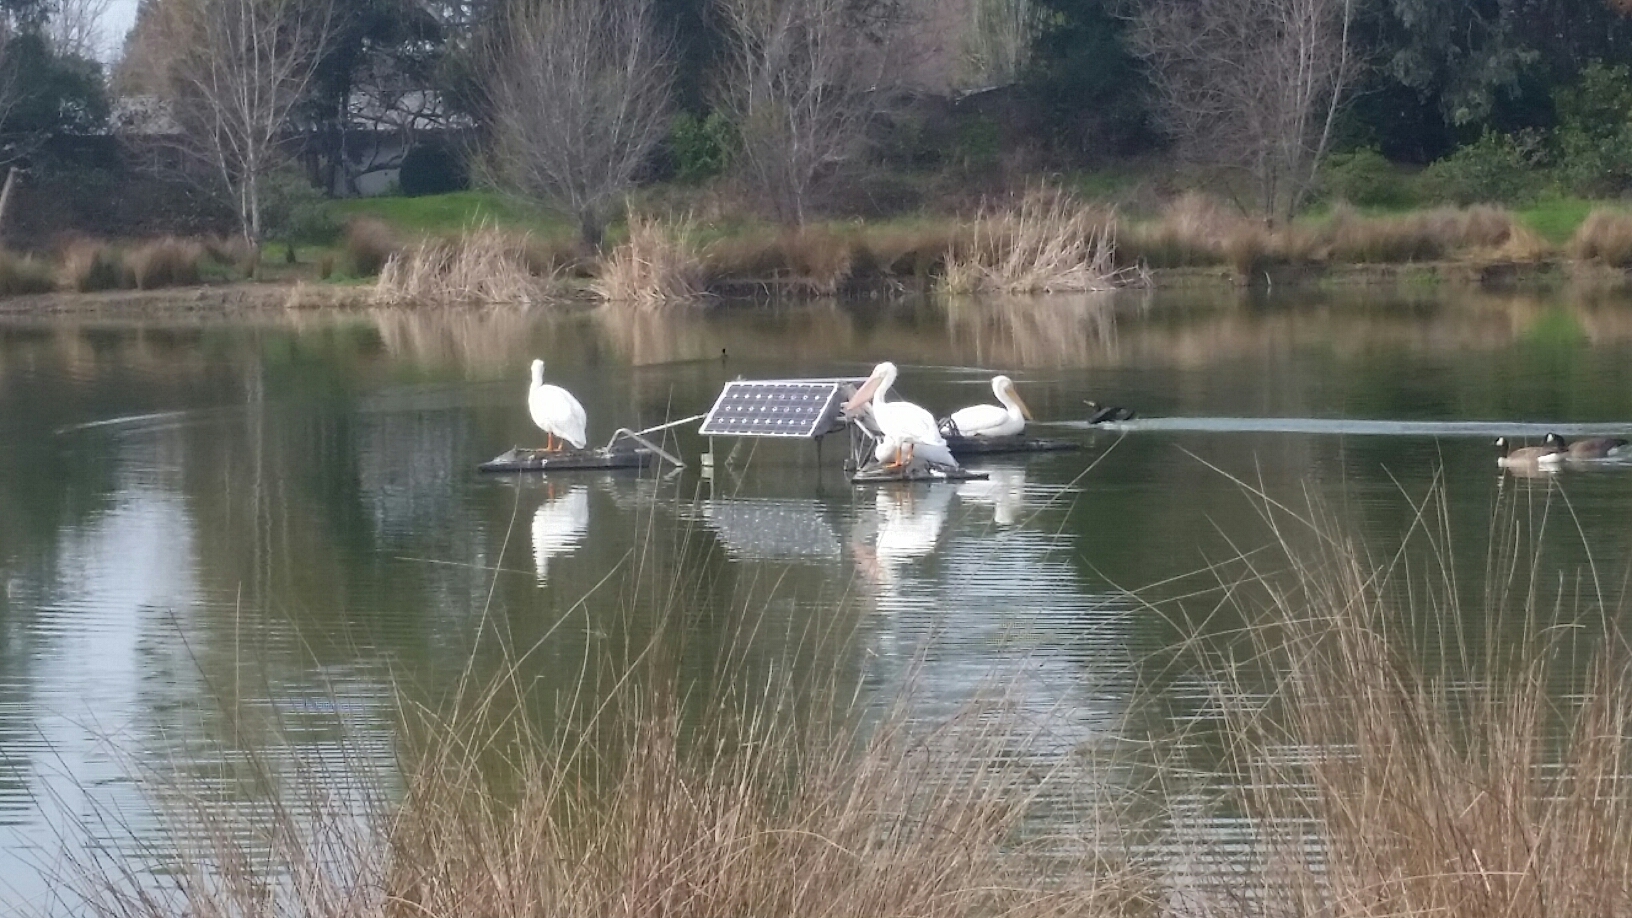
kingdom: Animalia
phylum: Chordata
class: Aves
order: Pelecaniformes
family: Pelecanidae
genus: Pelecanus
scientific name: Pelecanus erythrorhynchos
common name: American white pelican
